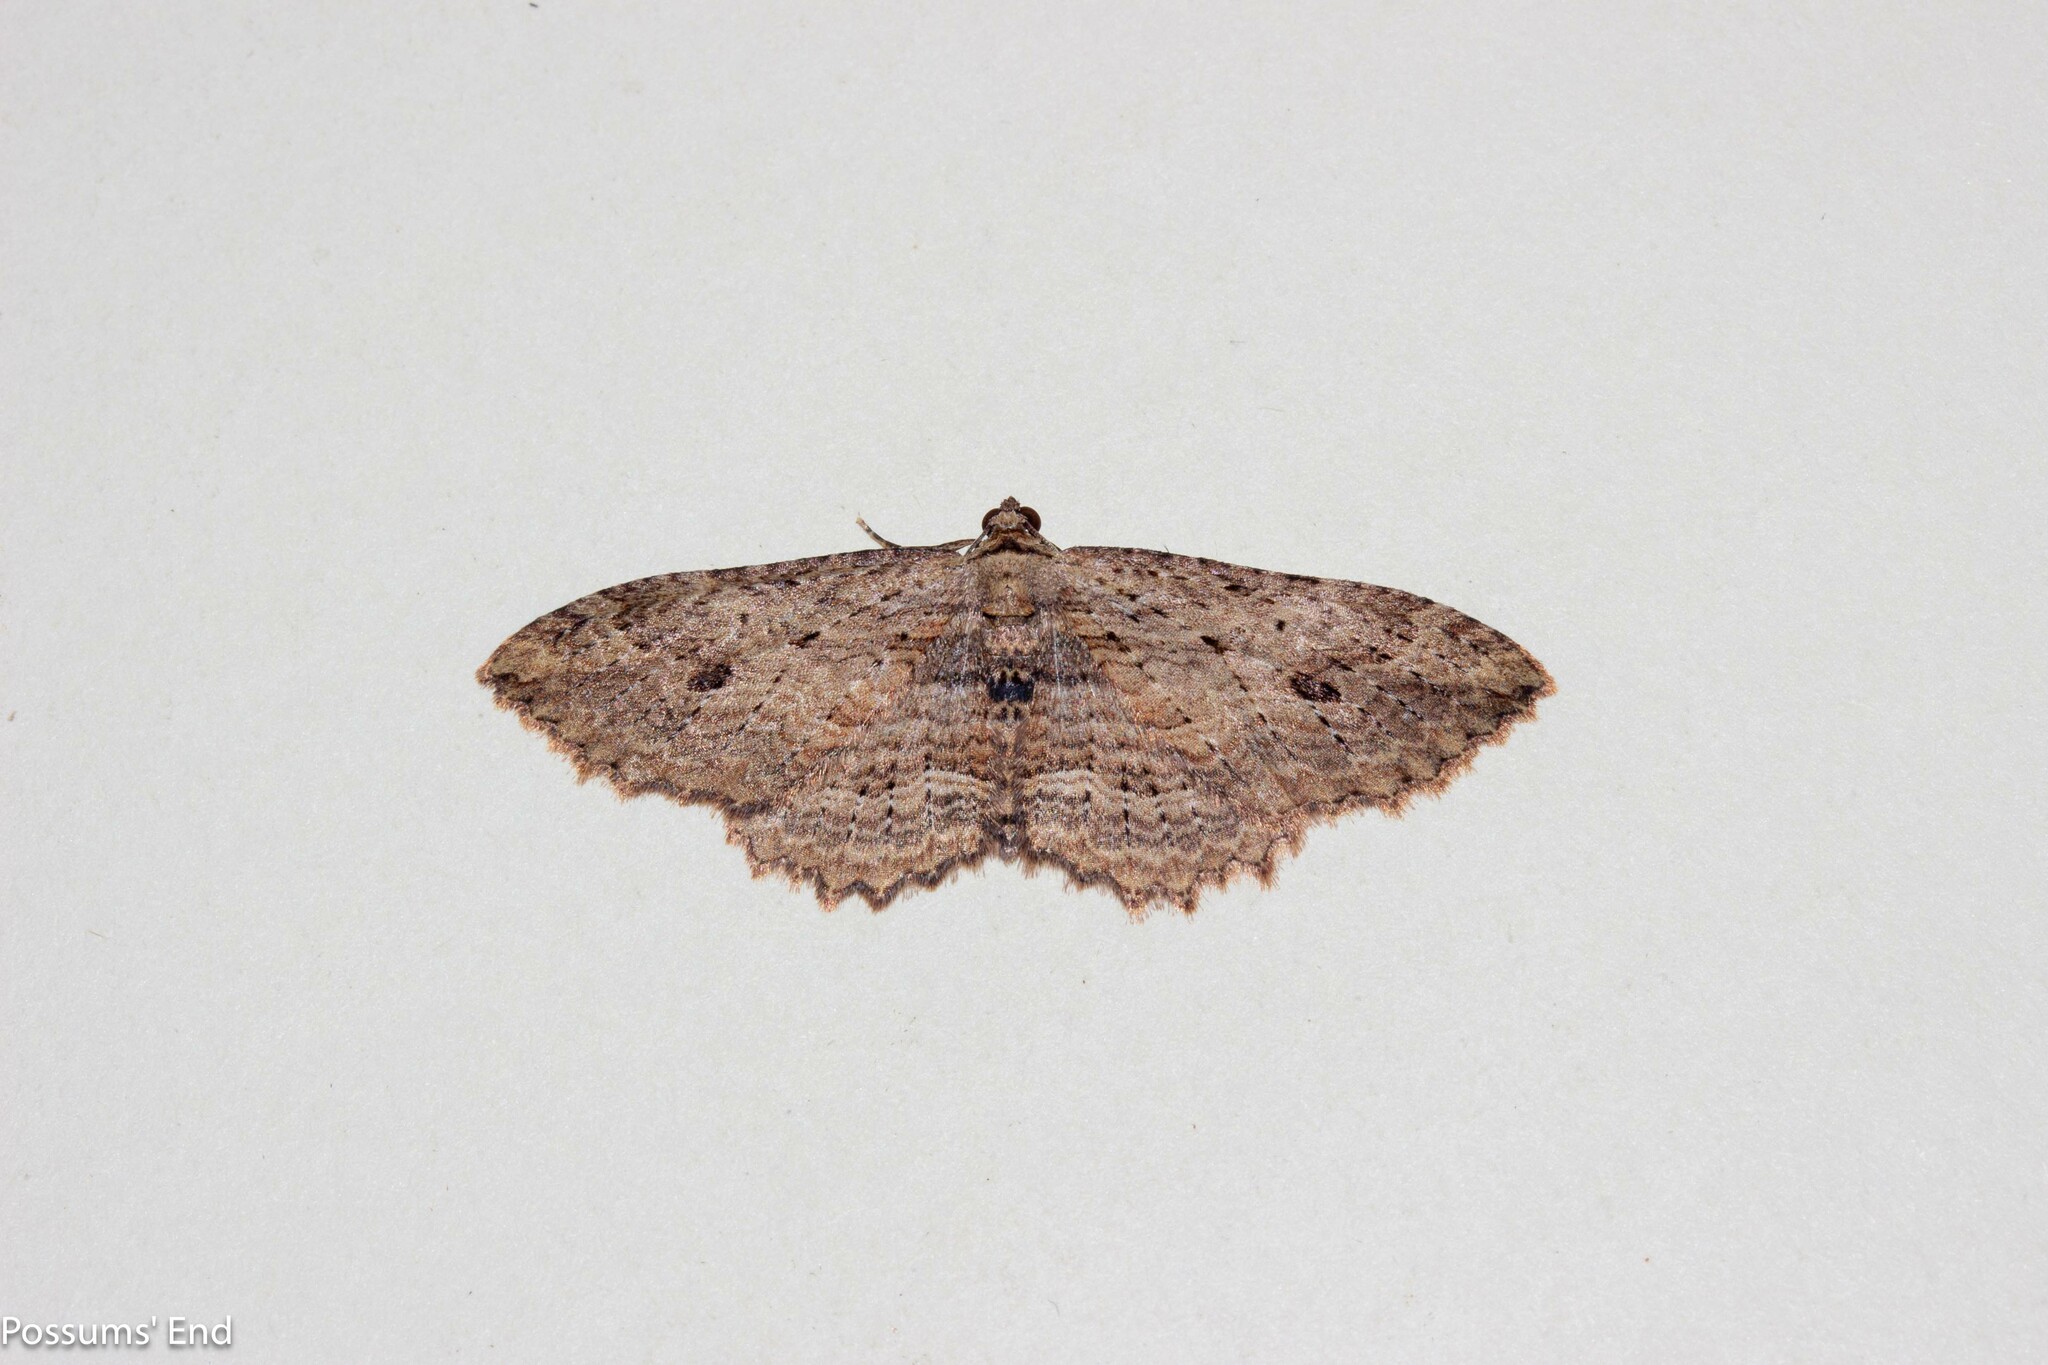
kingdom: Animalia
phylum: Arthropoda
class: Insecta
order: Lepidoptera
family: Geometridae
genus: Austrocidaria
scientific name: Austrocidaria bipartita
